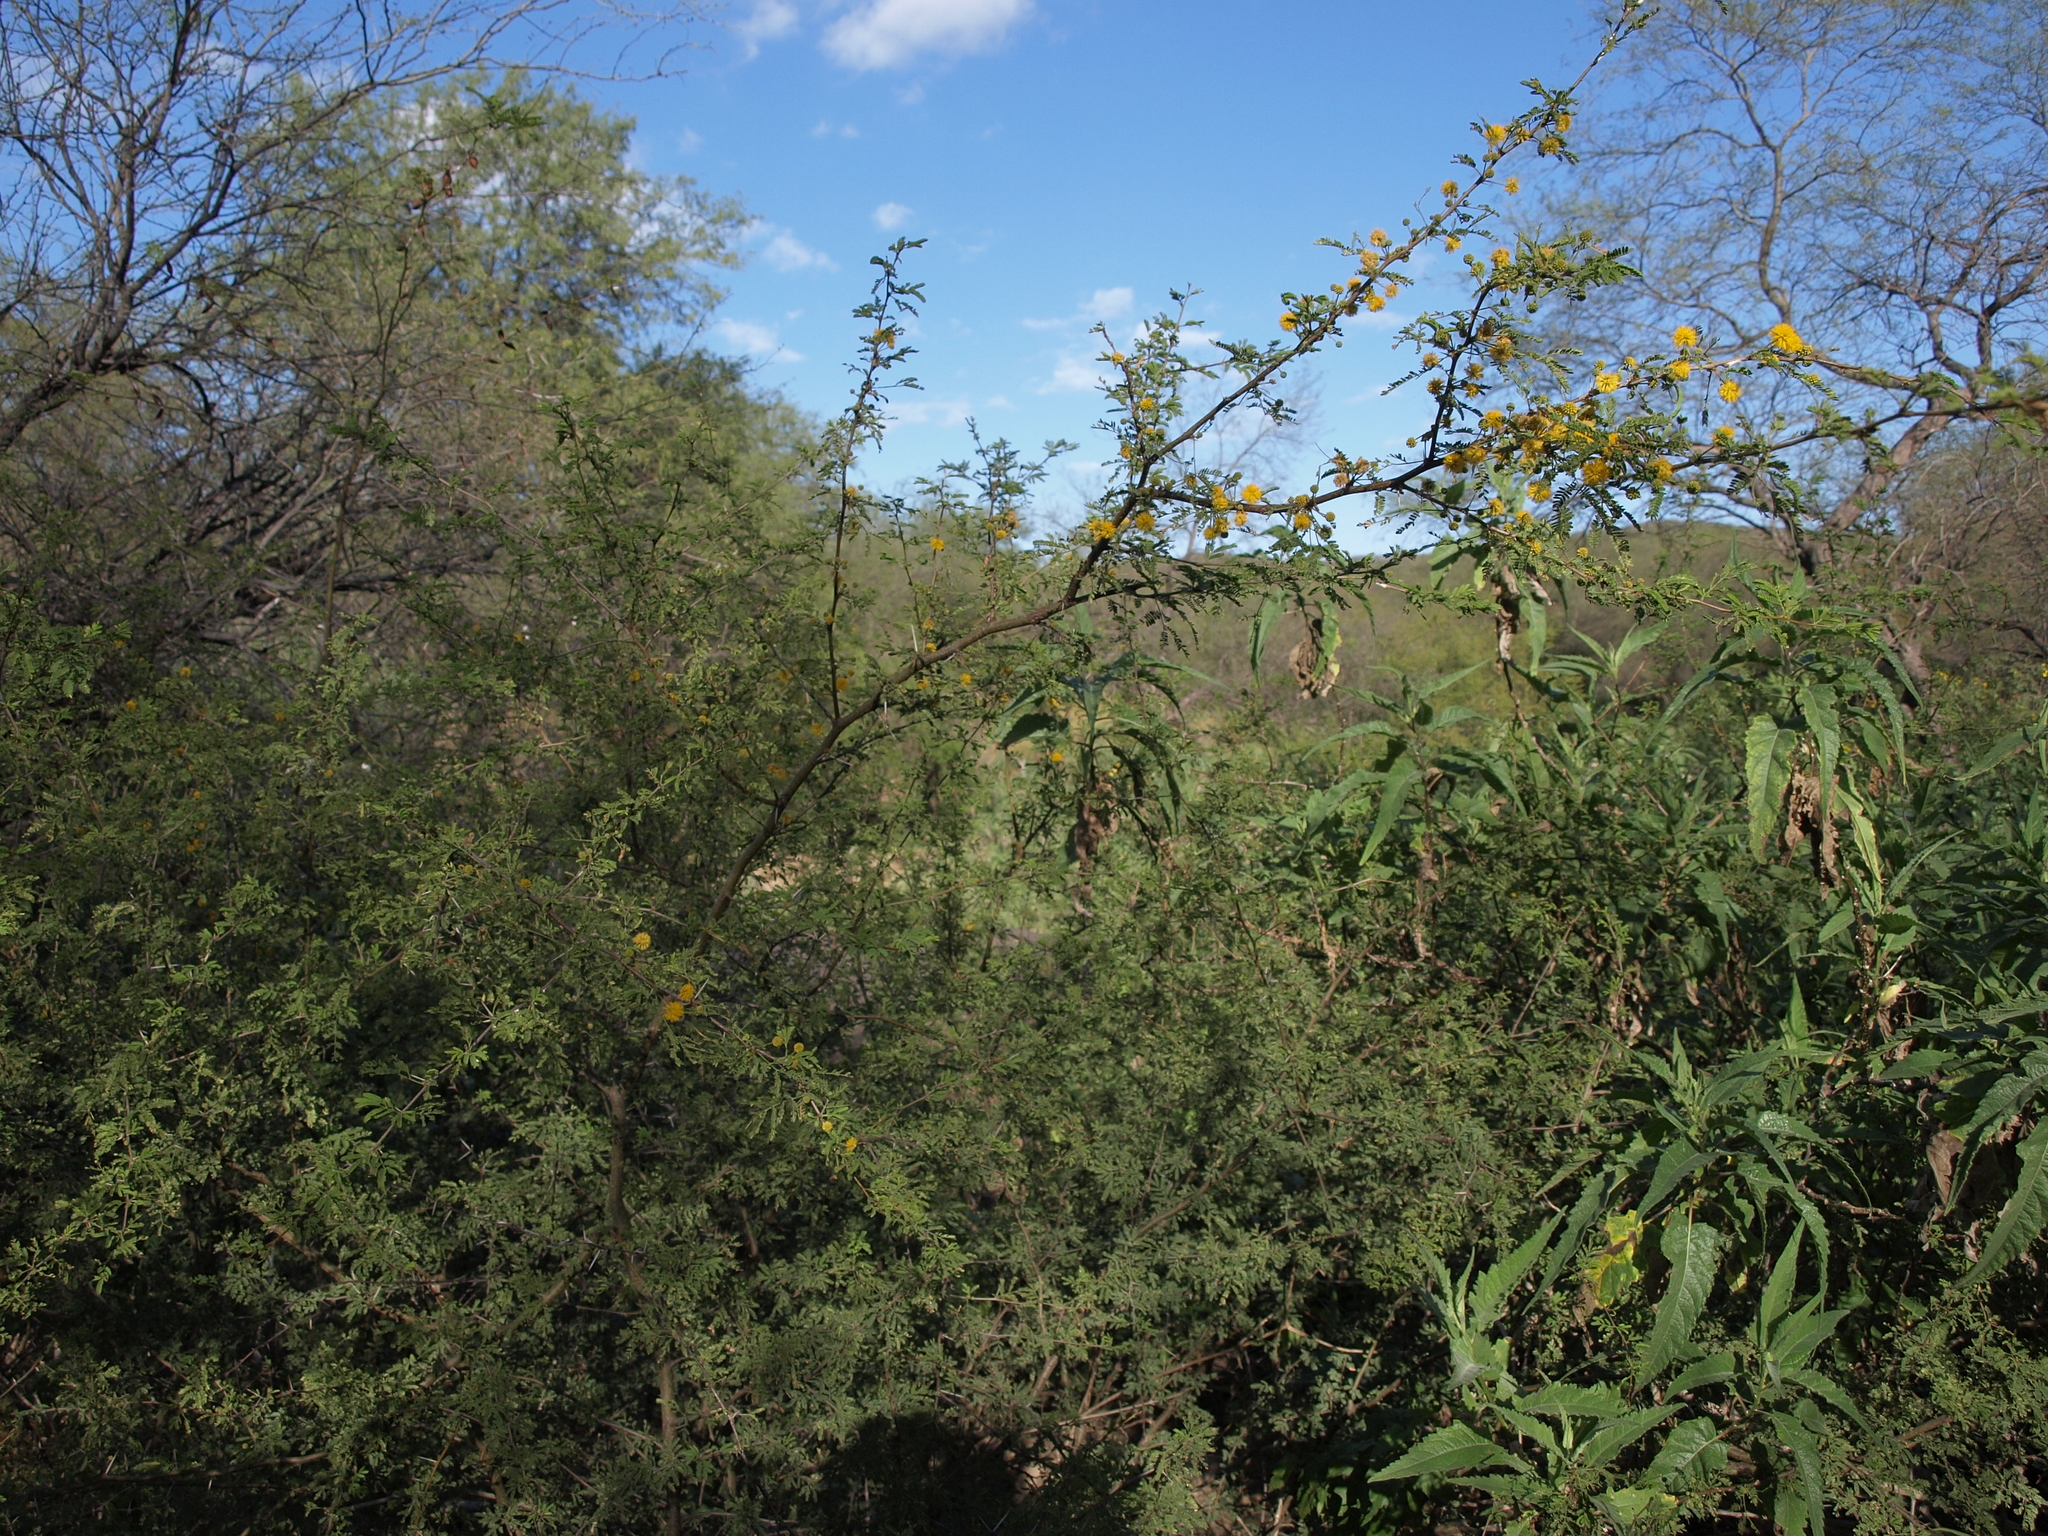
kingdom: Plantae
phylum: Tracheophyta
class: Magnoliopsida
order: Fabales
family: Fabaceae
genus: Vachellia
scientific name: Vachellia farnesiana
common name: Sweet acacia
